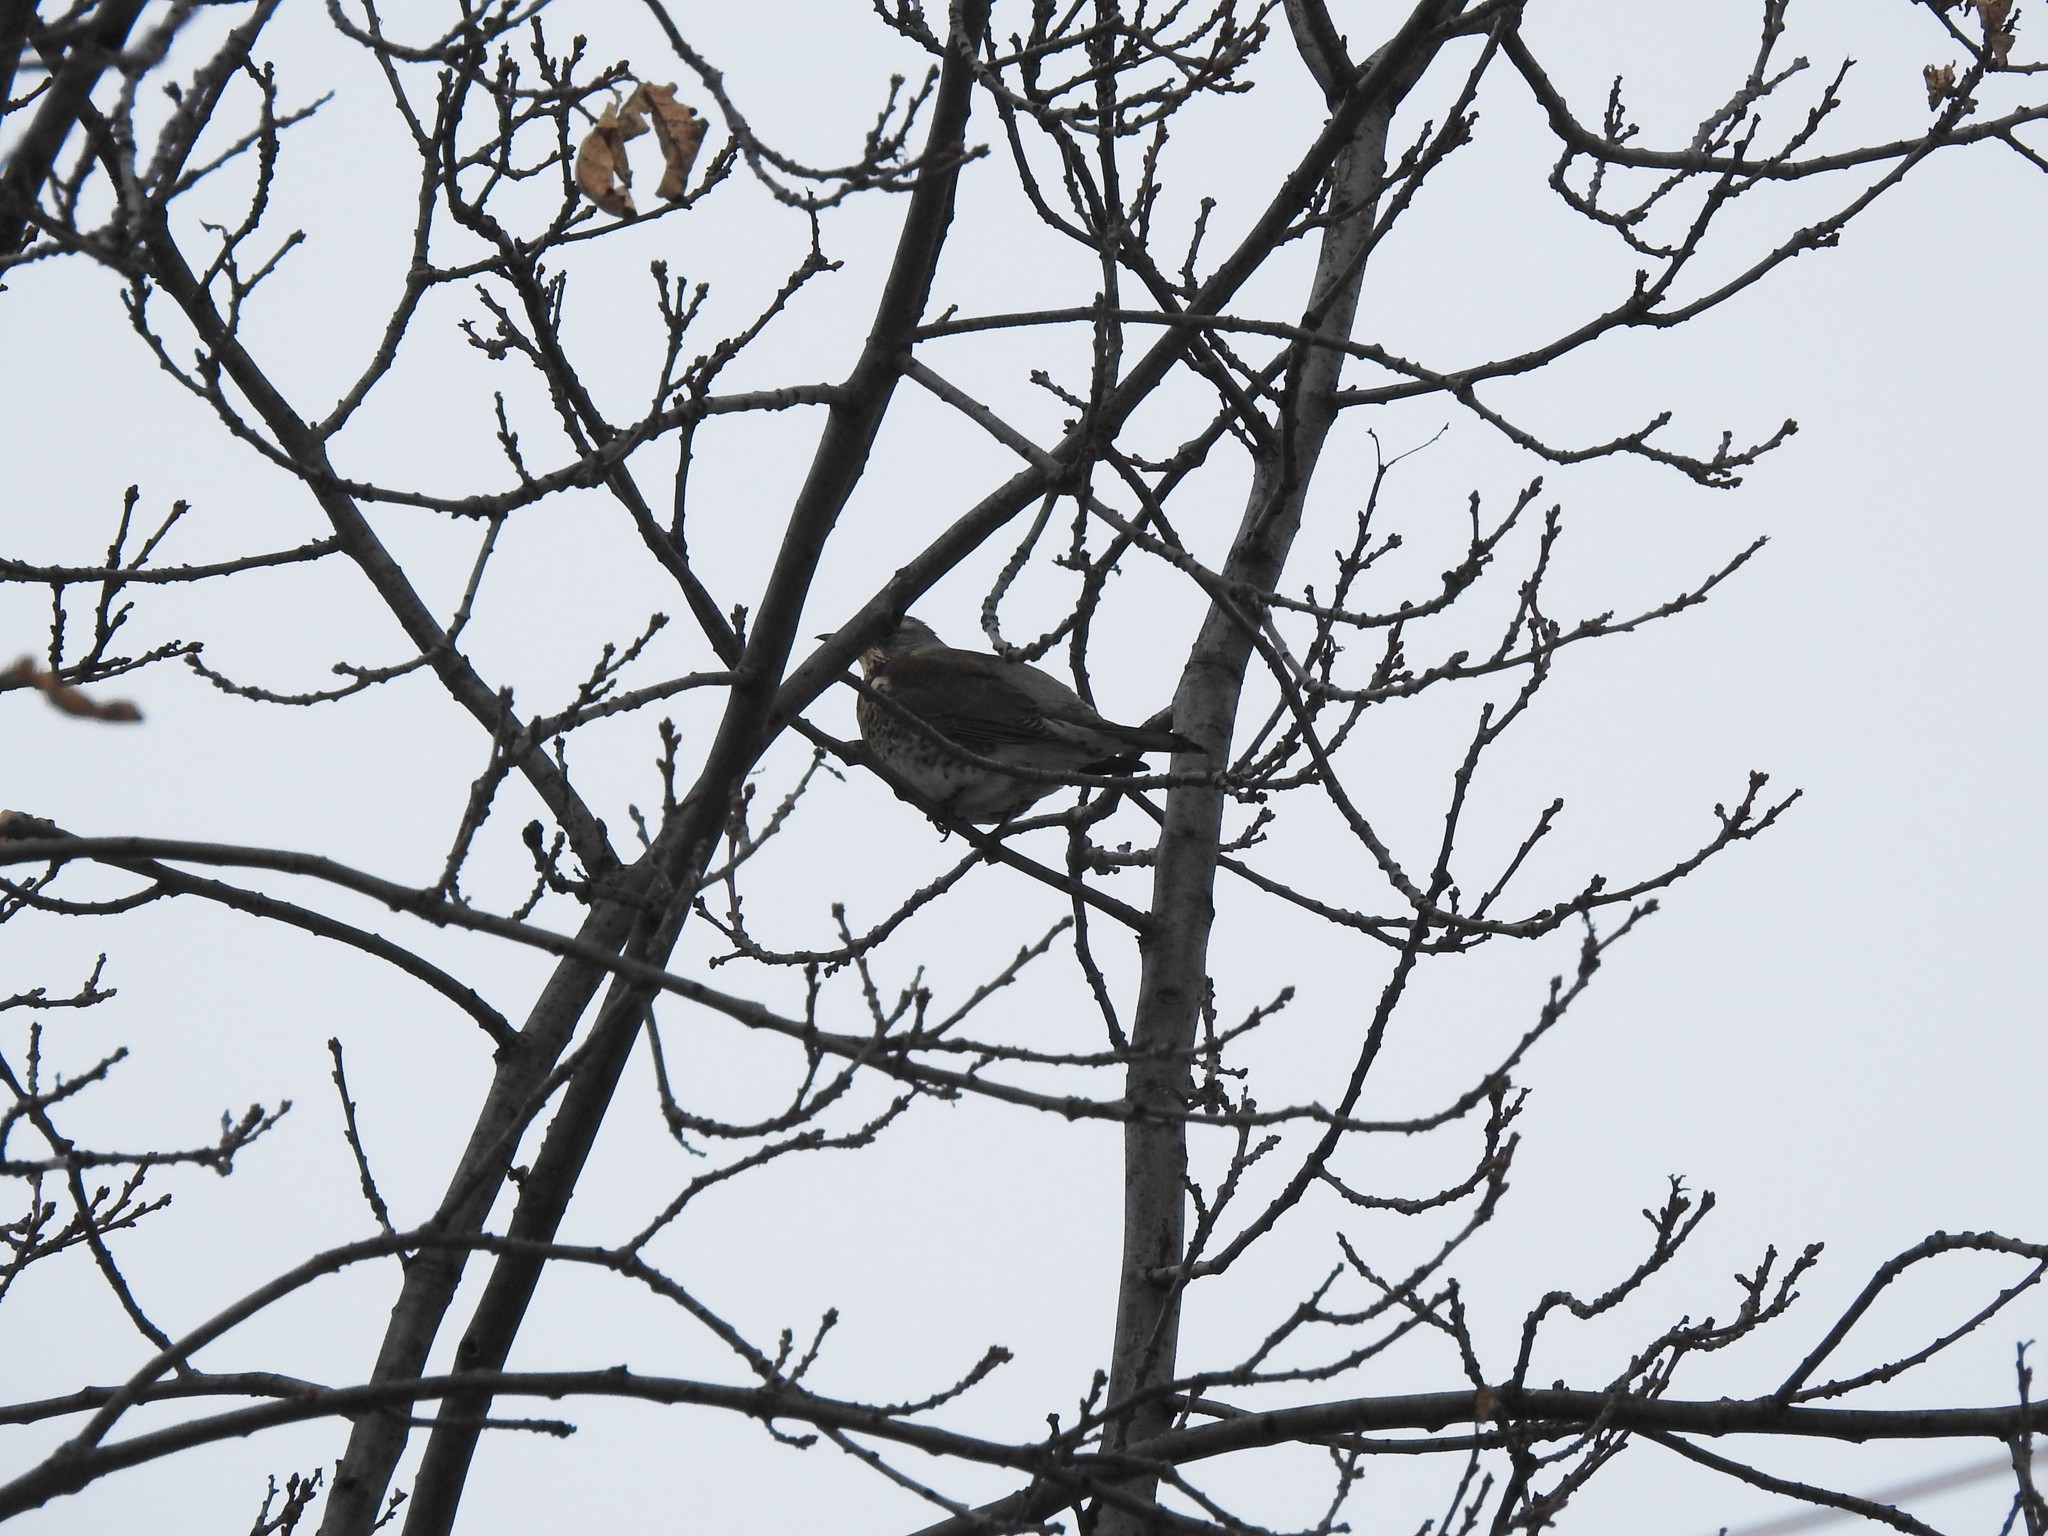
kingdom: Animalia
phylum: Chordata
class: Aves
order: Passeriformes
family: Turdidae
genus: Turdus
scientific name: Turdus pilaris
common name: Fieldfare
